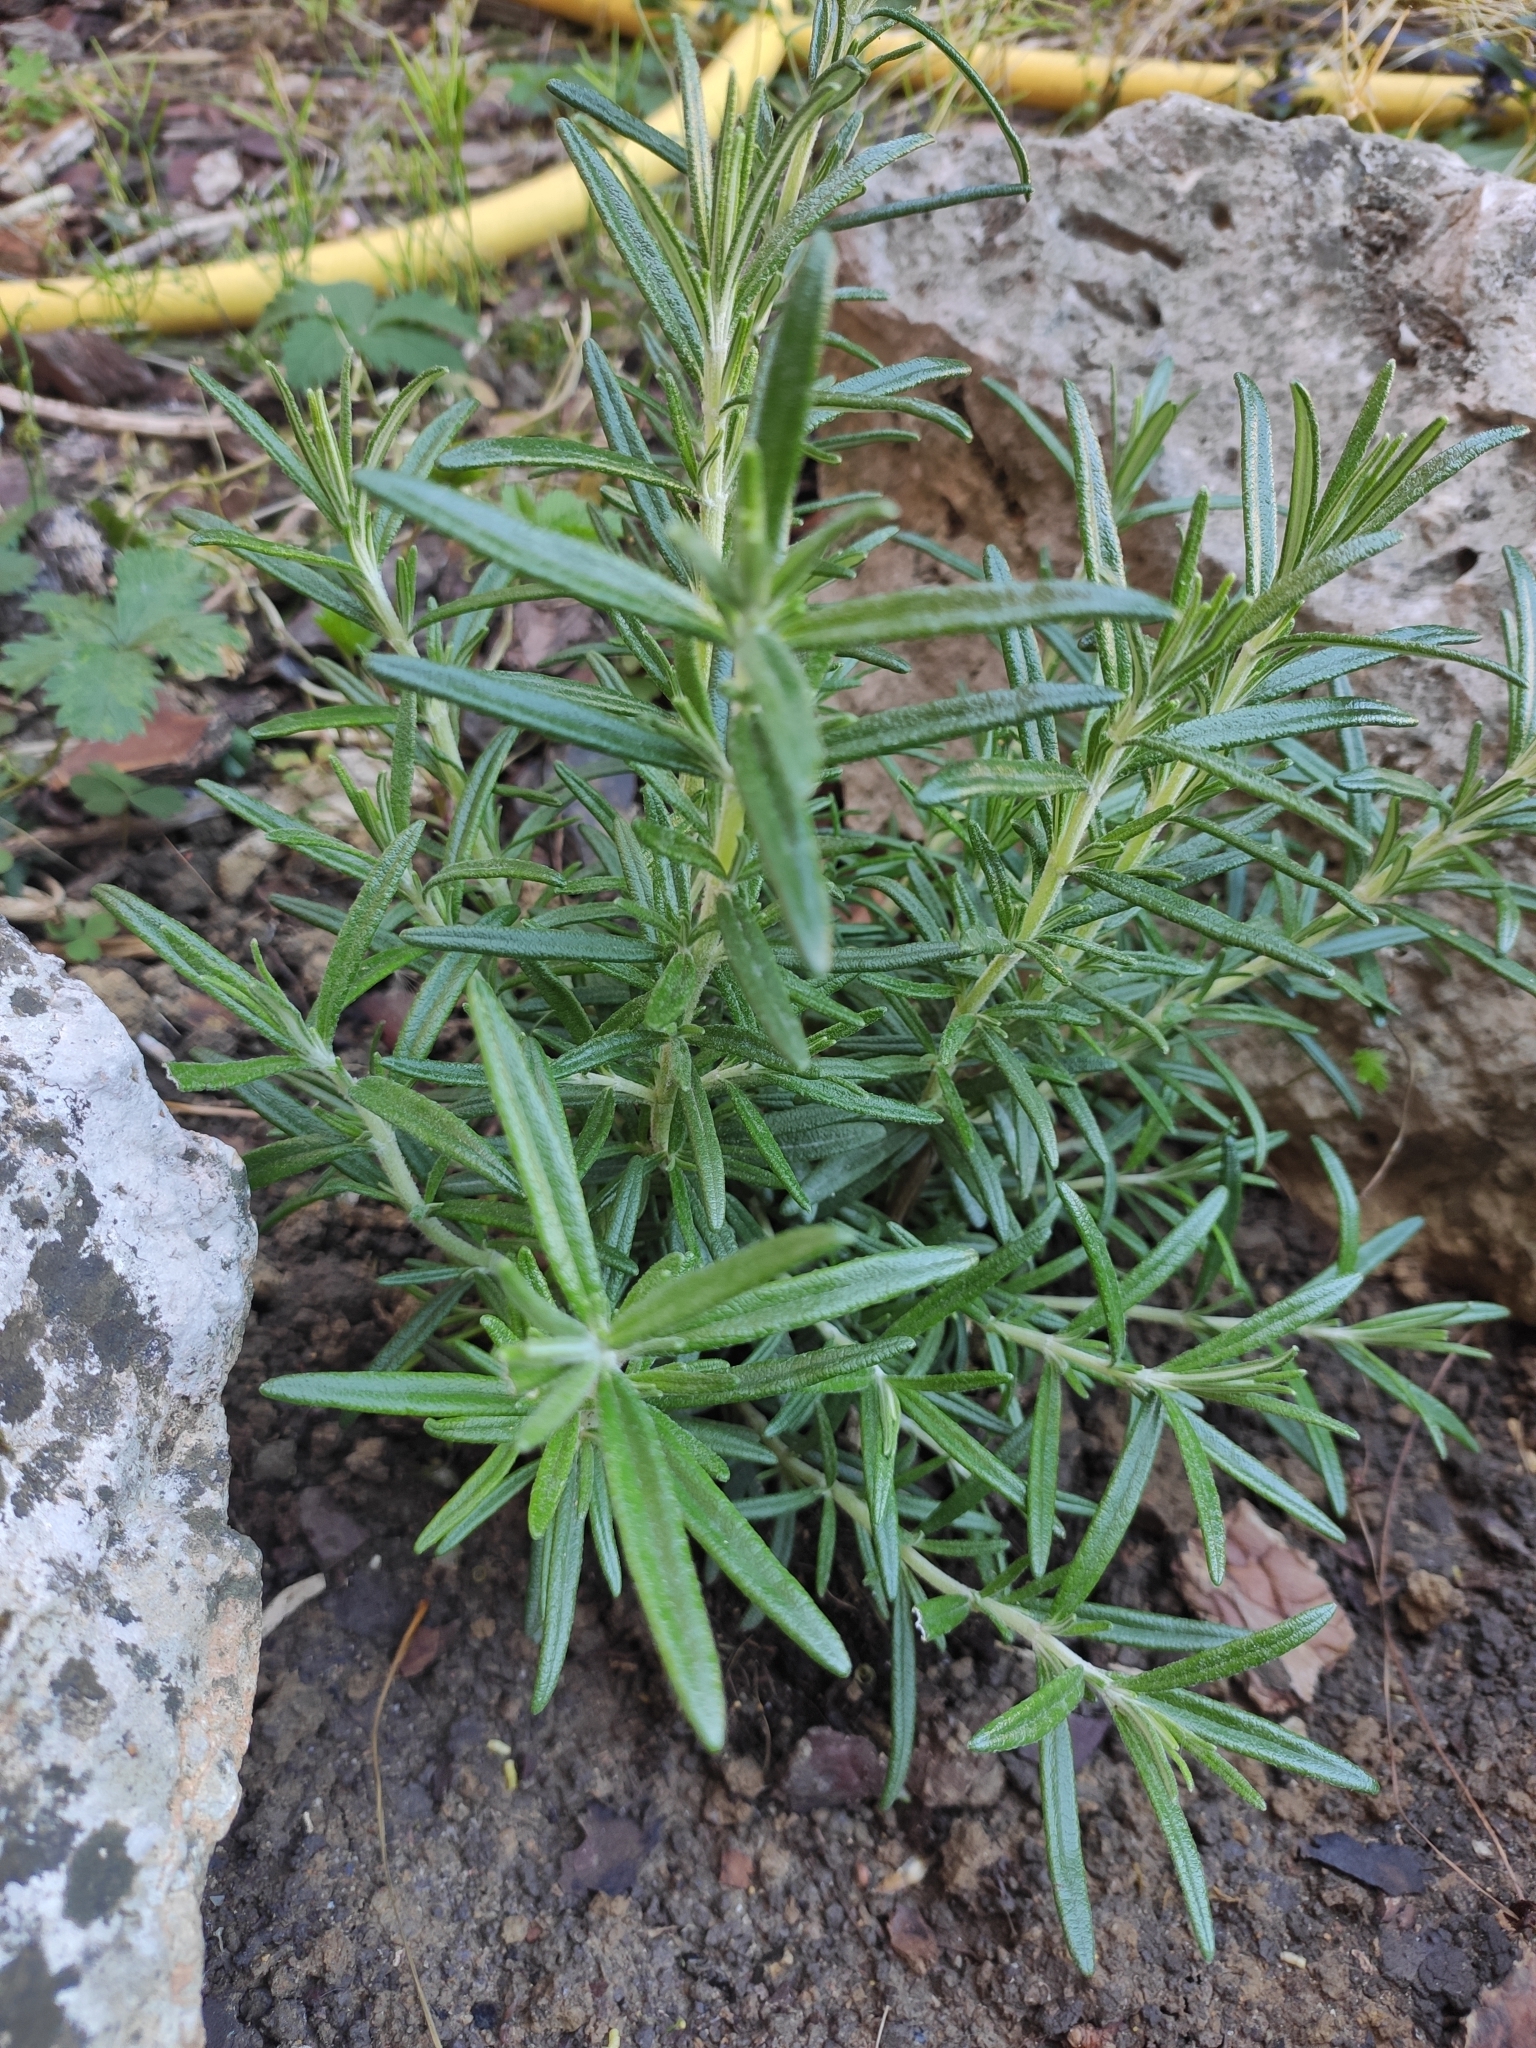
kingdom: Plantae
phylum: Tracheophyta
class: Magnoliopsida
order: Lamiales
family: Lamiaceae
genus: Salvia
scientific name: Salvia rosmarinus
